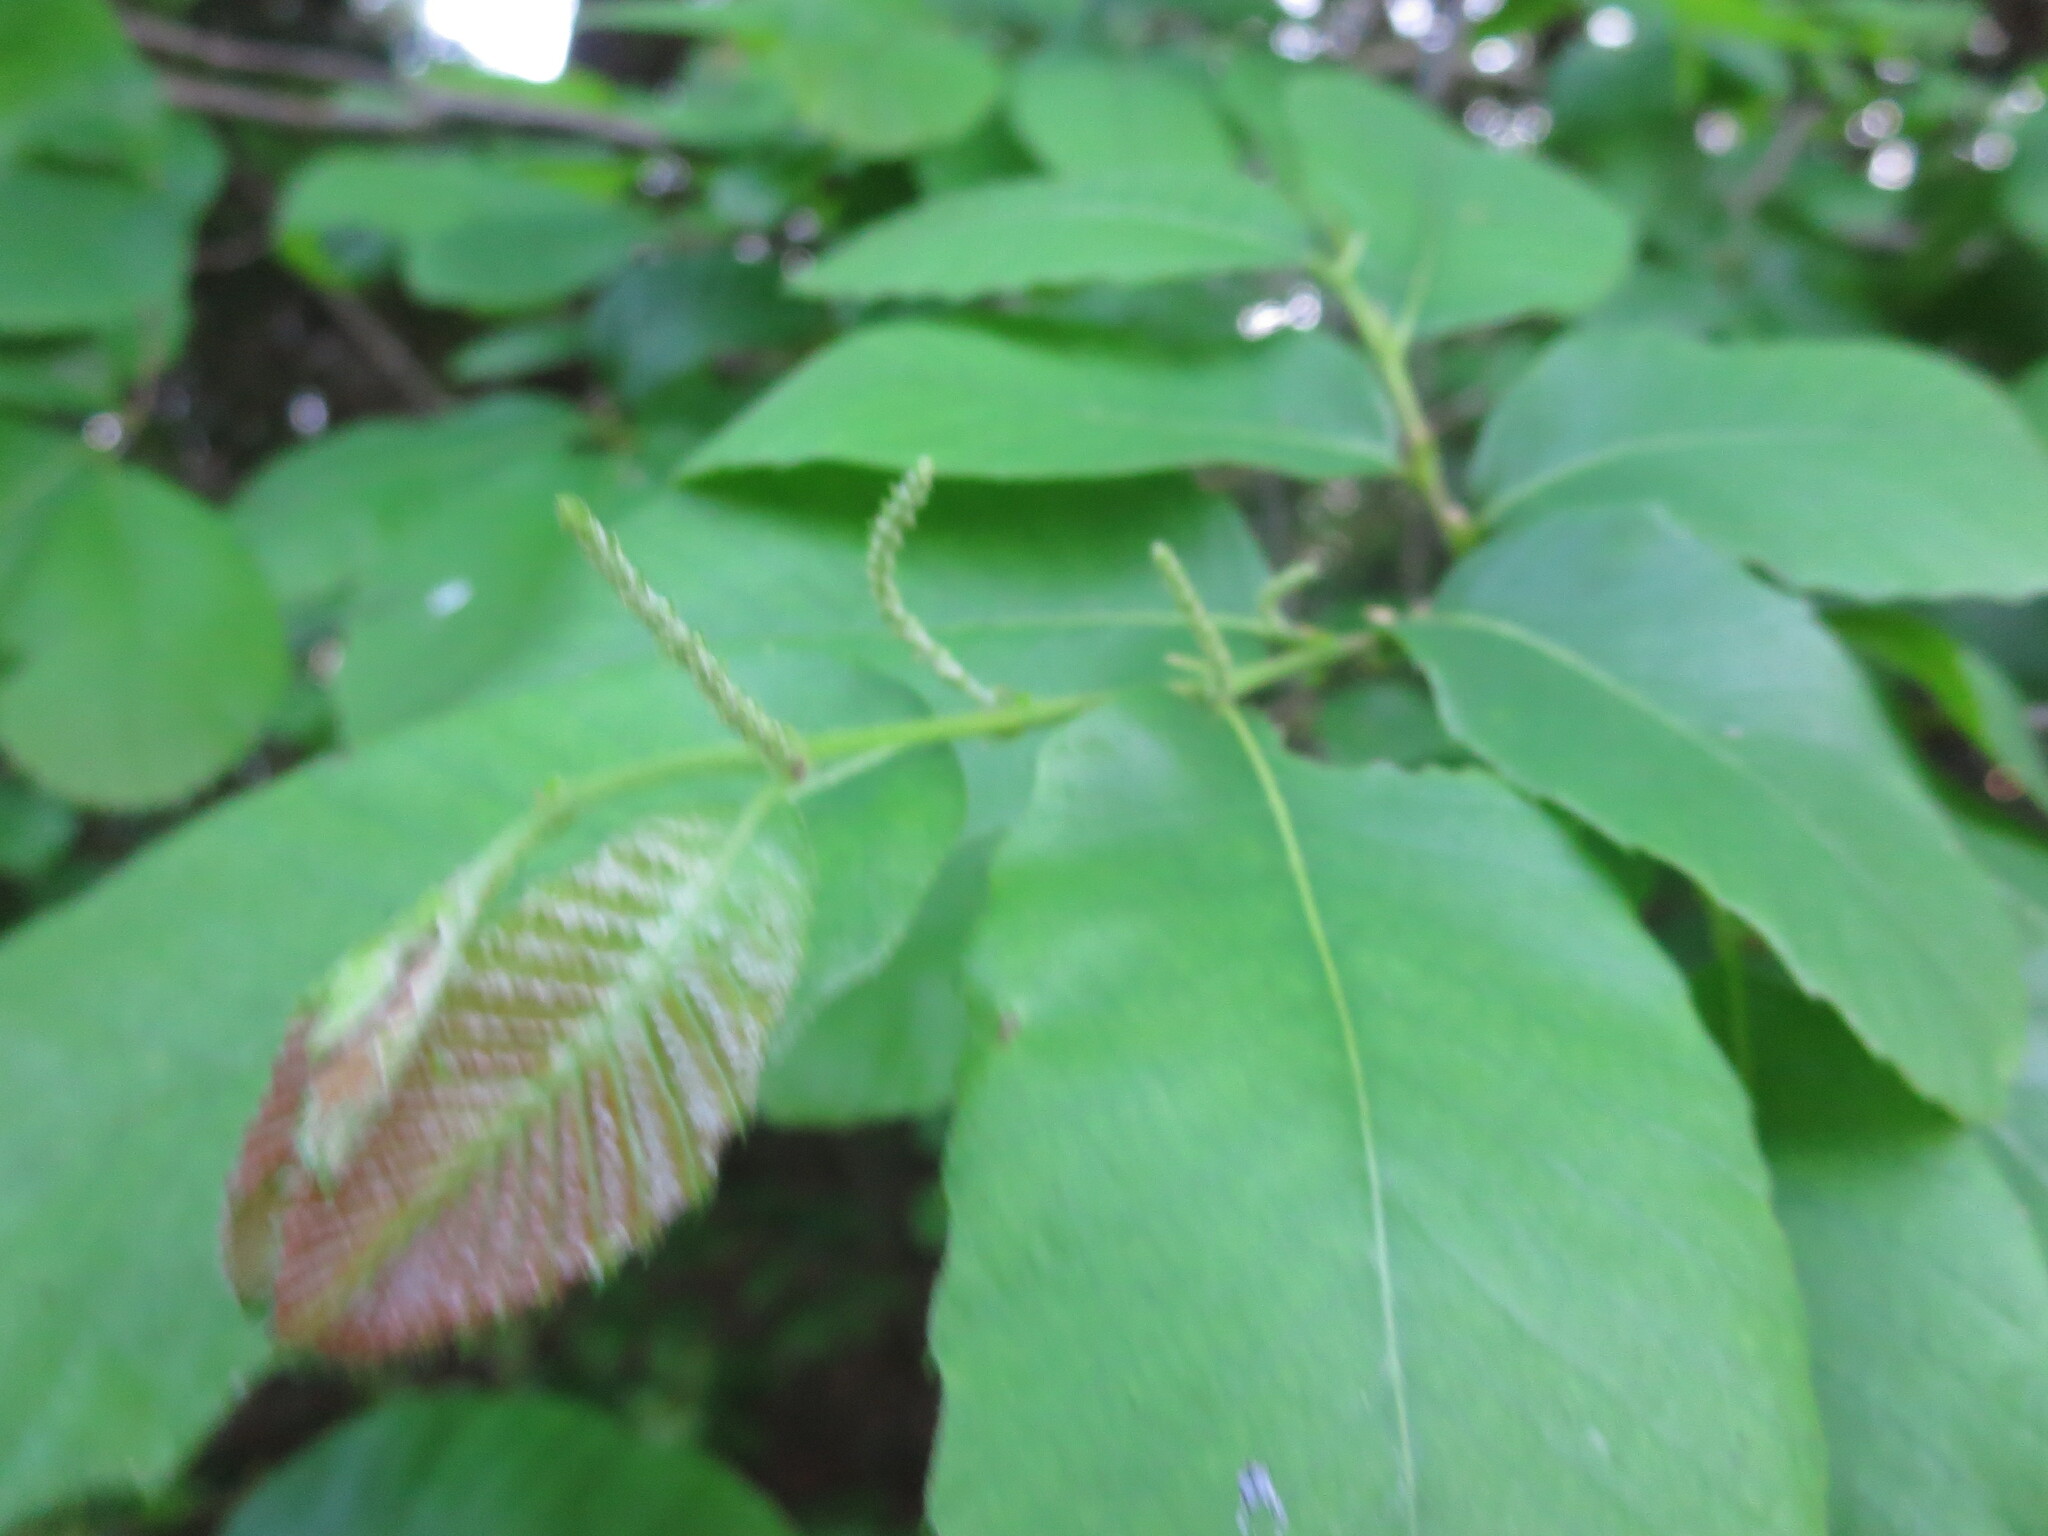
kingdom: Plantae
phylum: Tracheophyta
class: Magnoliopsida
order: Fagales
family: Fagaceae
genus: Castanea
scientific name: Castanea pumila
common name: Chinkapin
